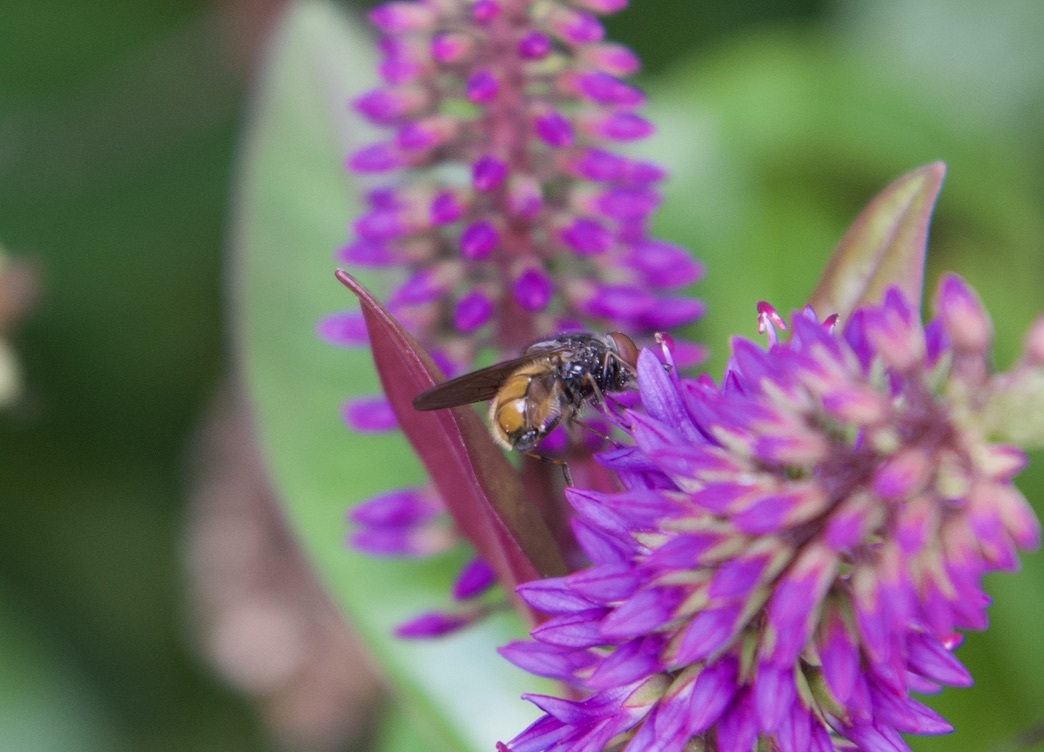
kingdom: Animalia
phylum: Arthropoda
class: Insecta
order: Diptera
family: Syrphidae
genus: Rhingia
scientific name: Rhingia campestris
